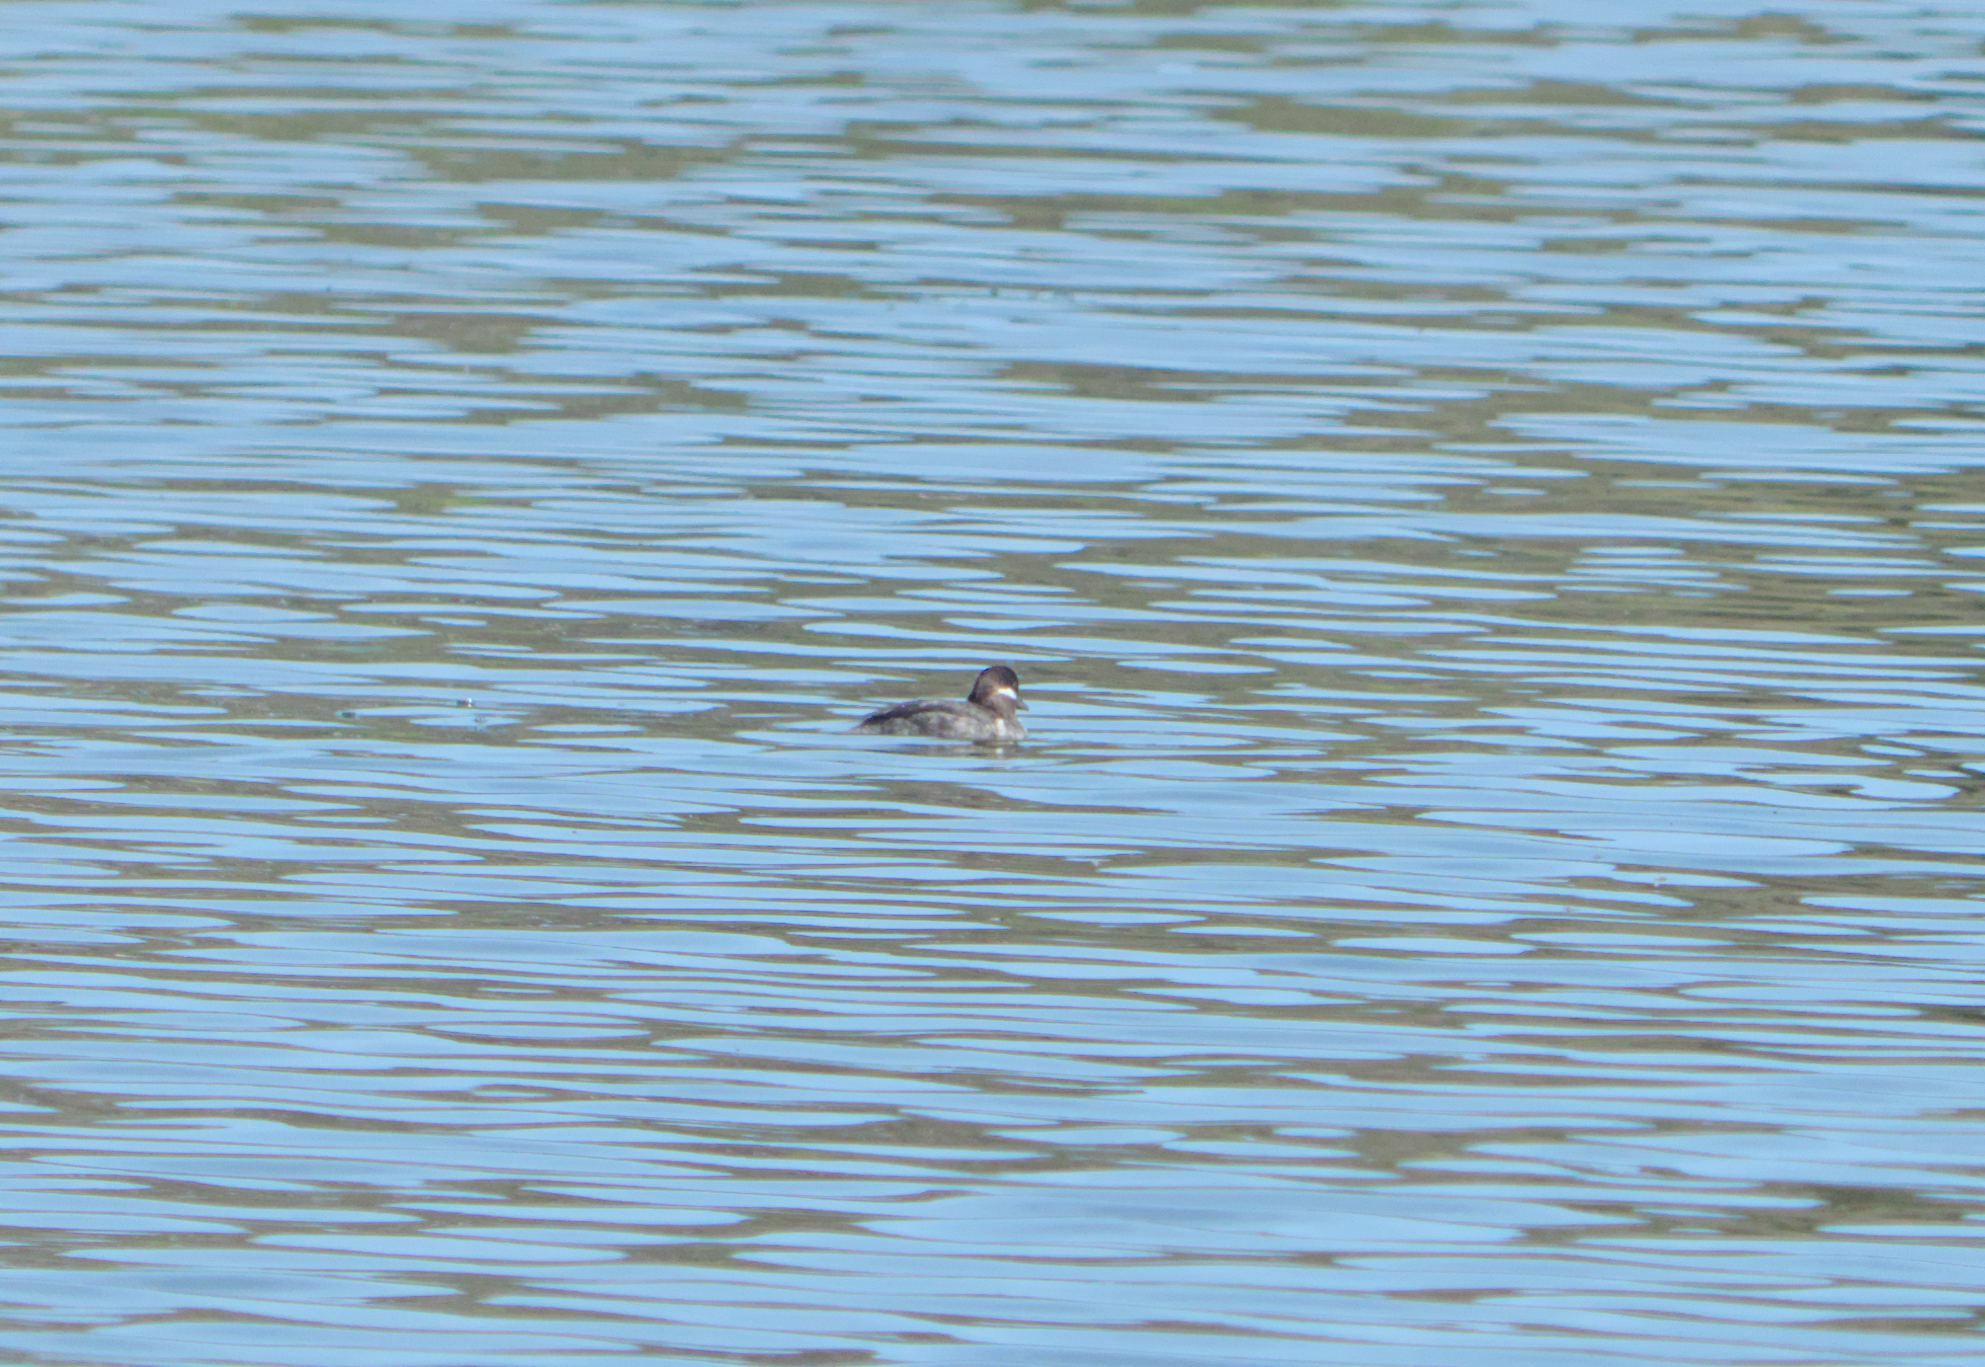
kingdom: Animalia
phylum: Chordata
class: Aves
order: Anseriformes
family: Anatidae
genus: Bucephala
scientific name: Bucephala albeola
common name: Bufflehead
